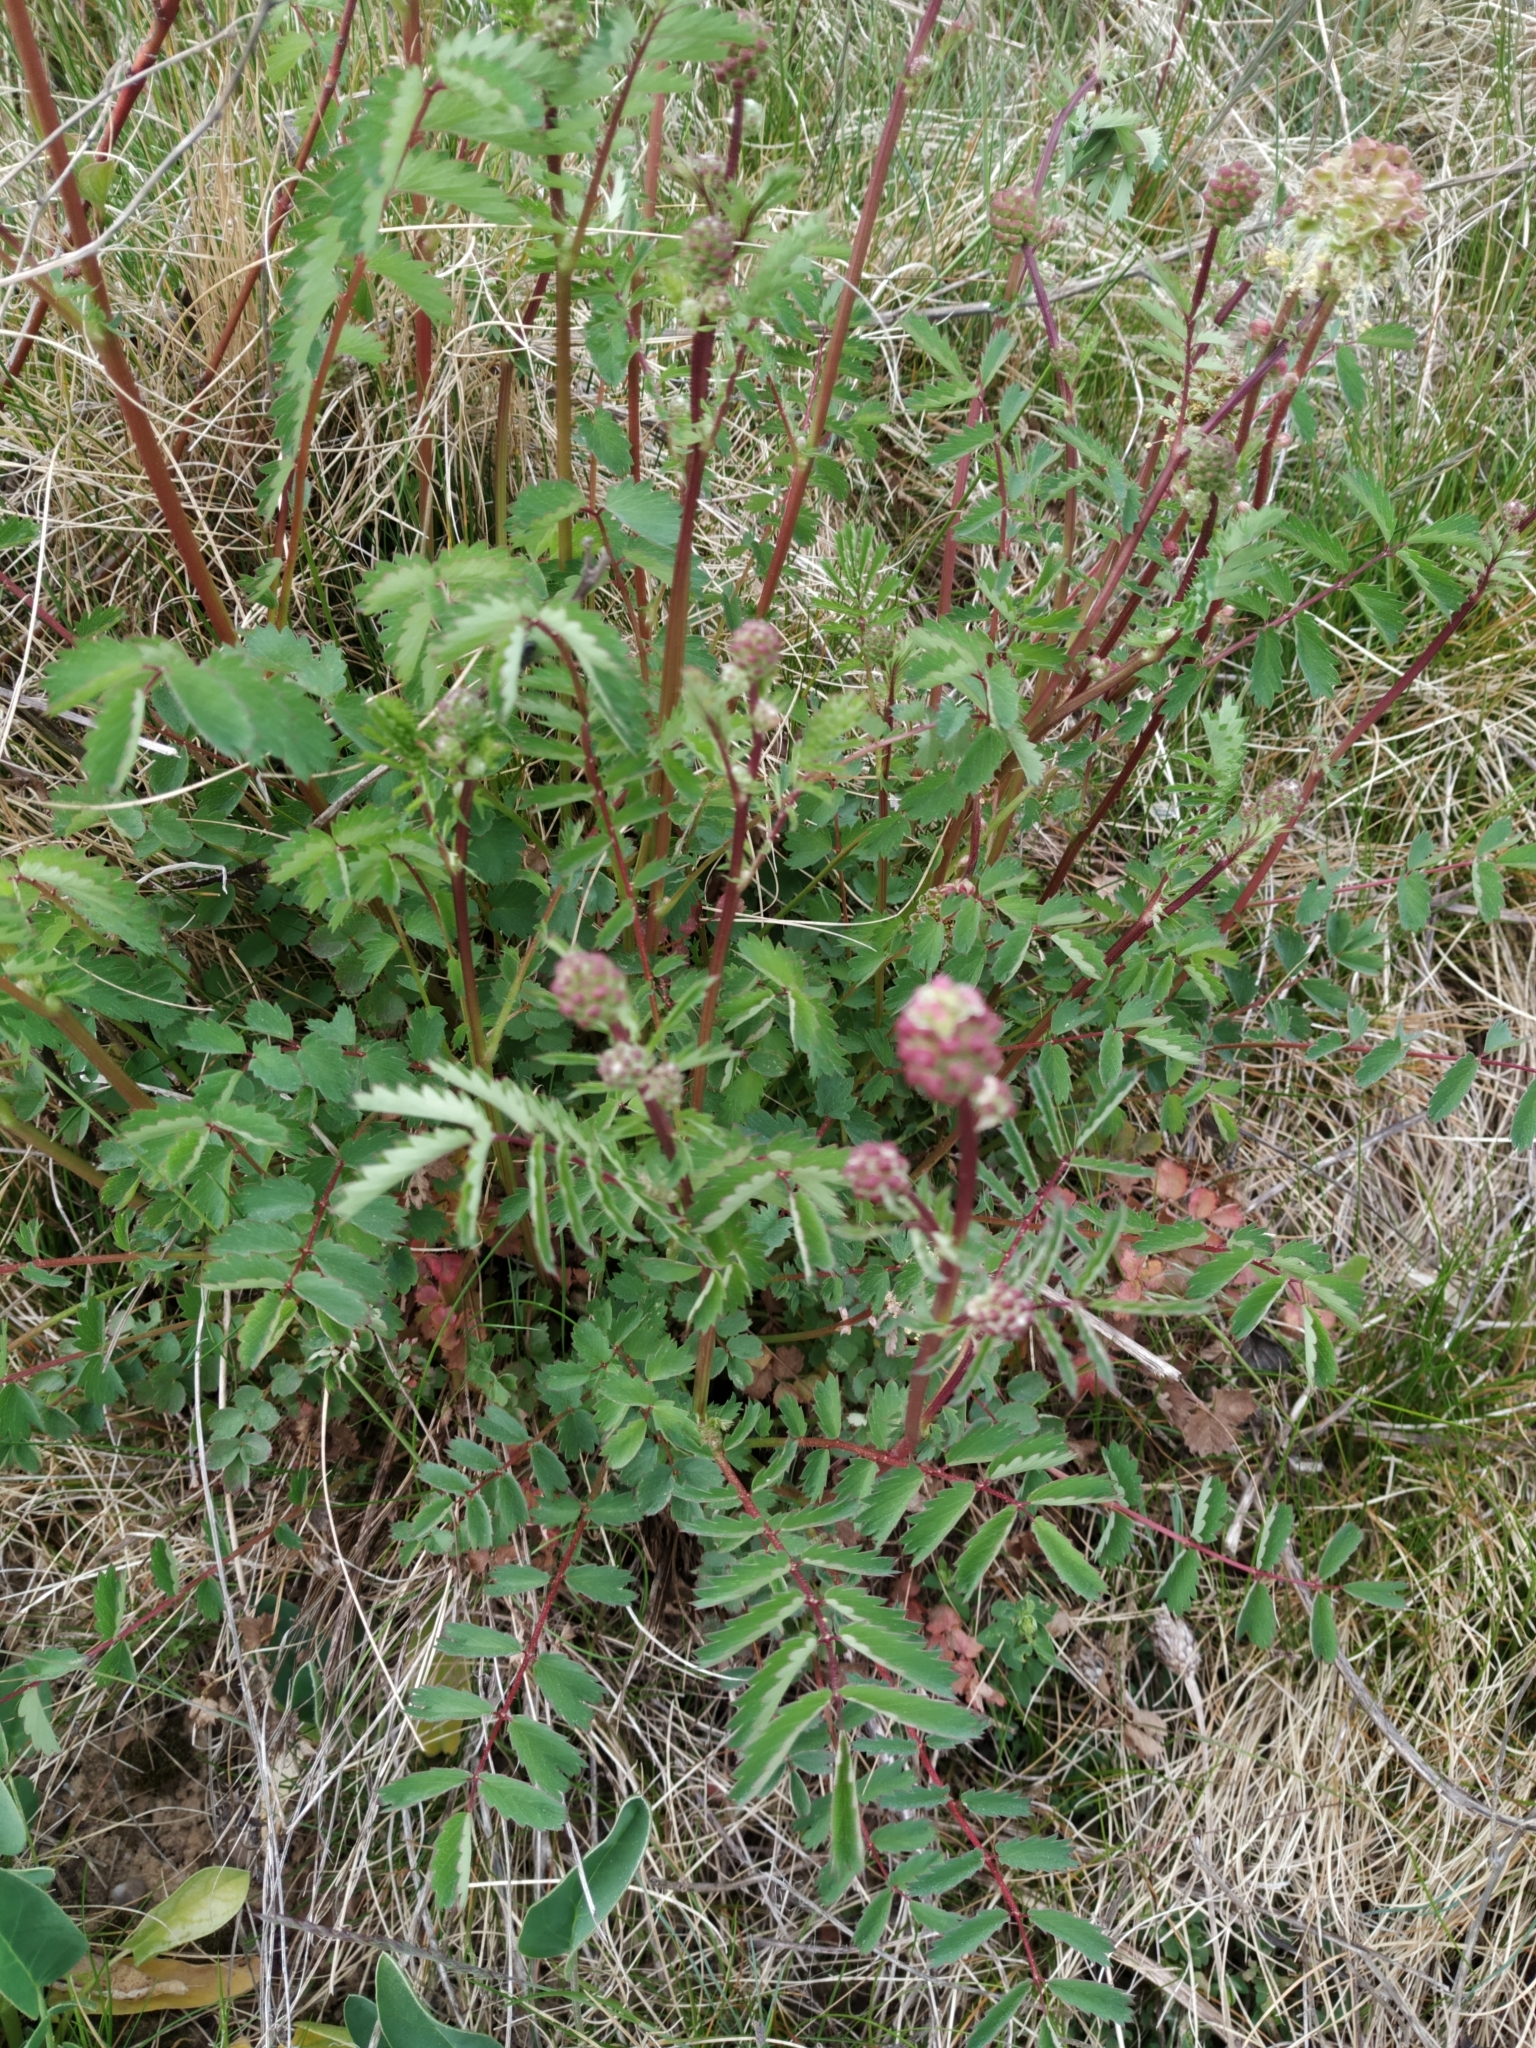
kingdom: Plantae
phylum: Tracheophyta
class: Magnoliopsida
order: Rosales
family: Rosaceae
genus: Poterium
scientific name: Poterium sanguisorba
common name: Salad burnet
